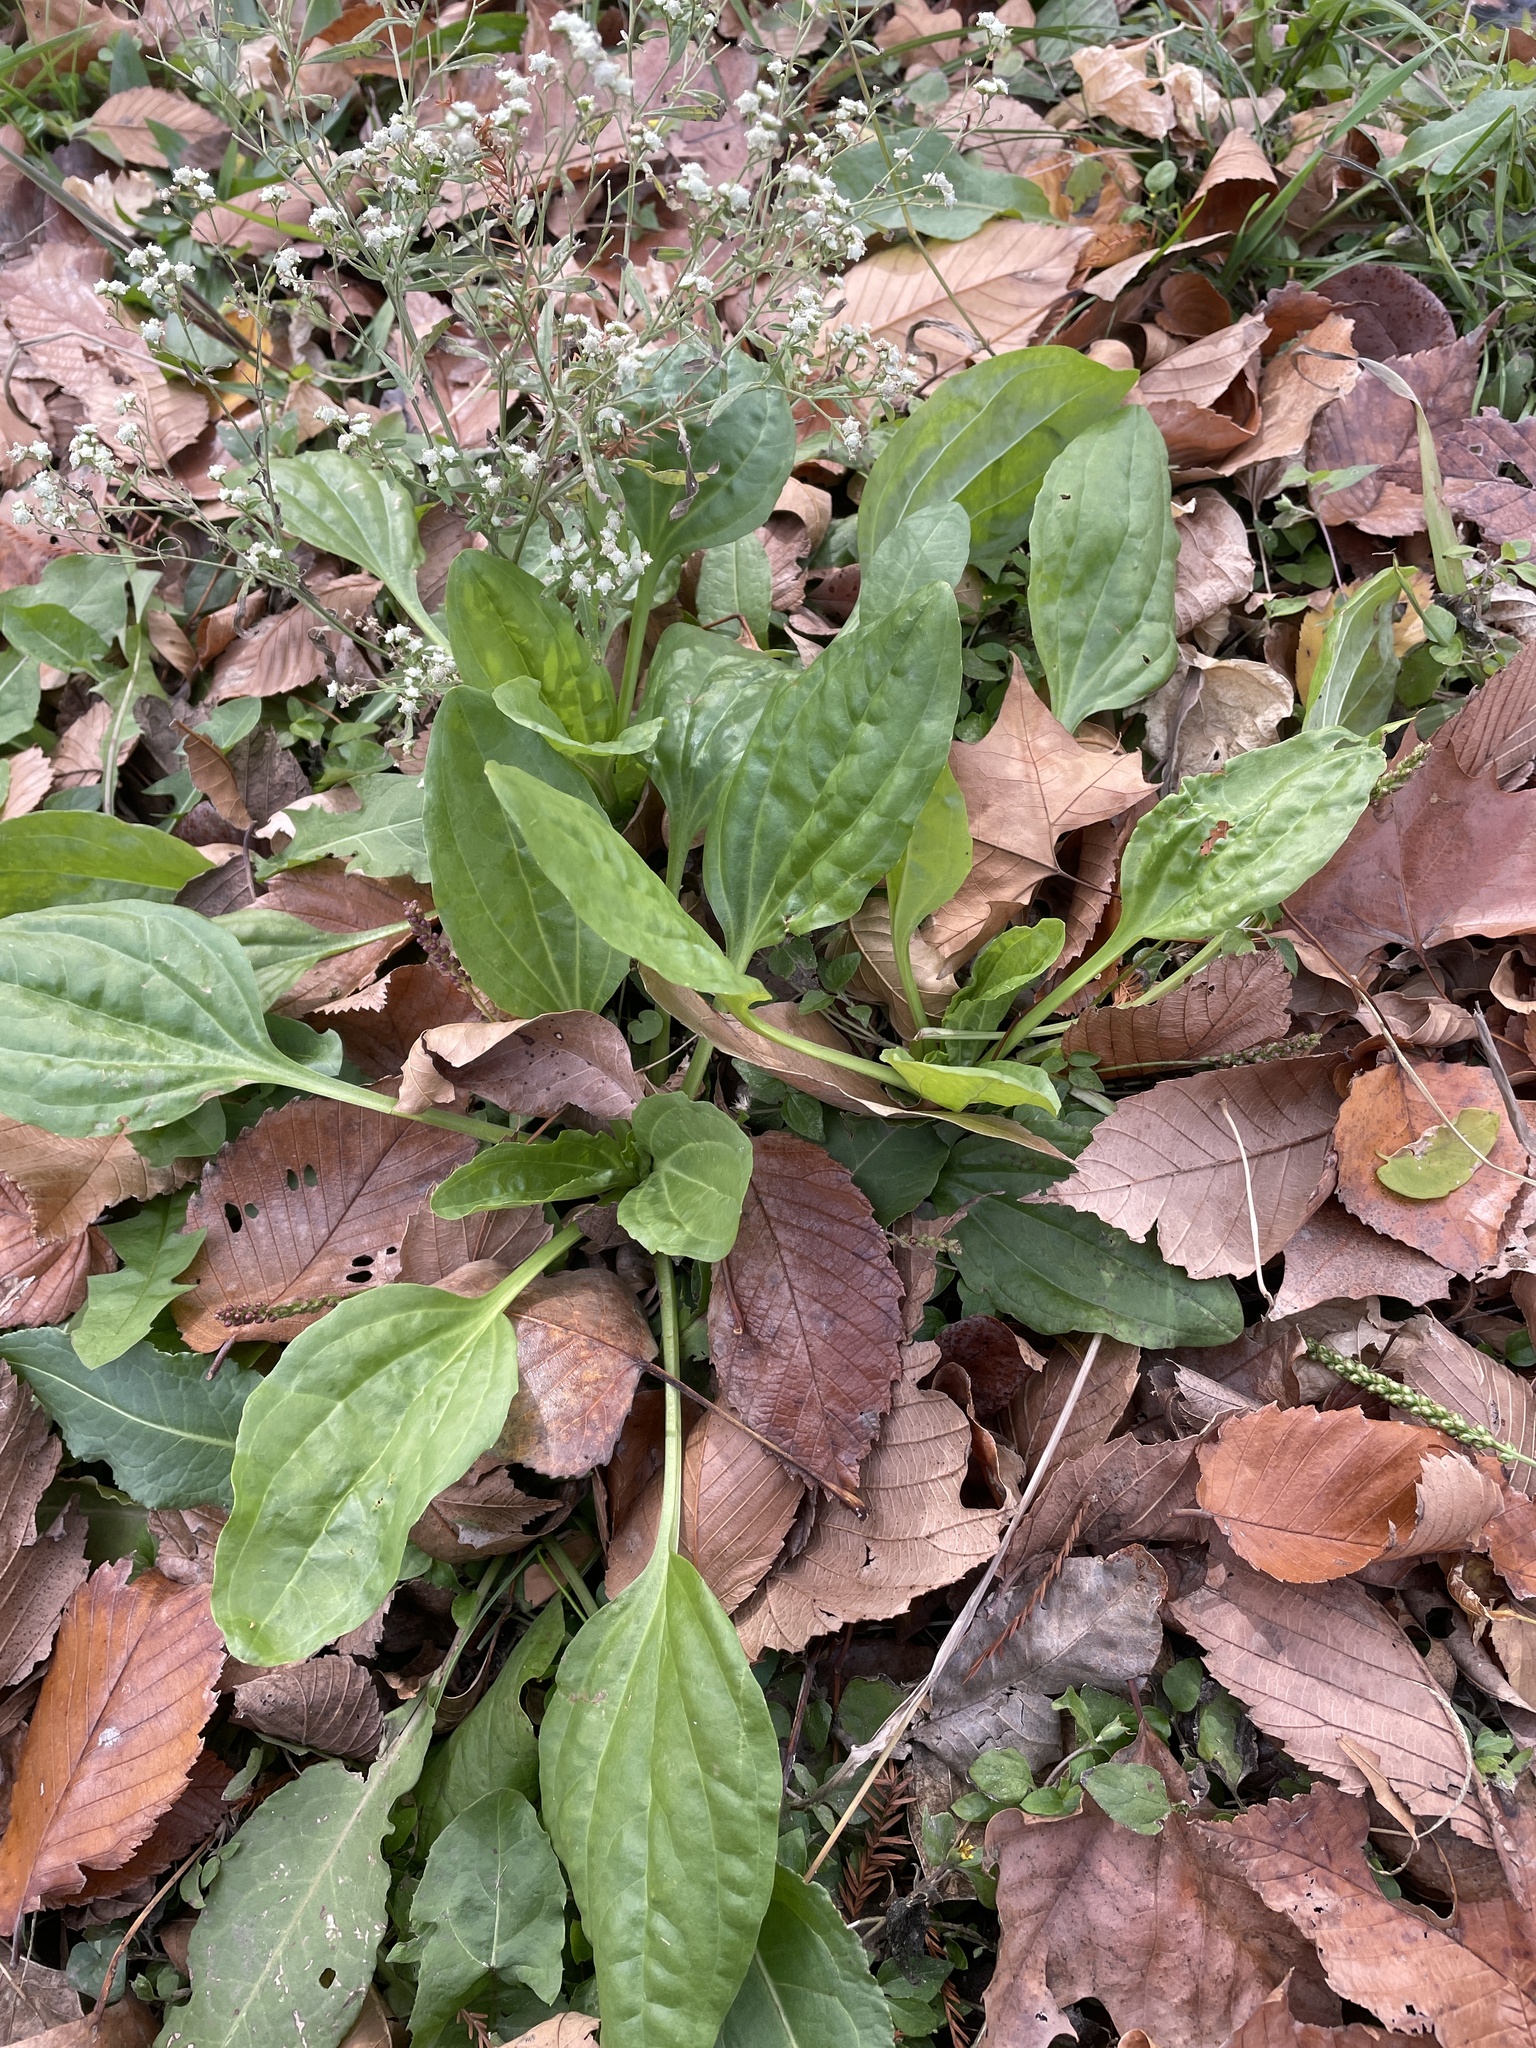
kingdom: Plantae
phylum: Tracheophyta
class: Magnoliopsida
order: Lamiales
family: Plantaginaceae
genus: Plantago
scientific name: Plantago major
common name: Common plantain
